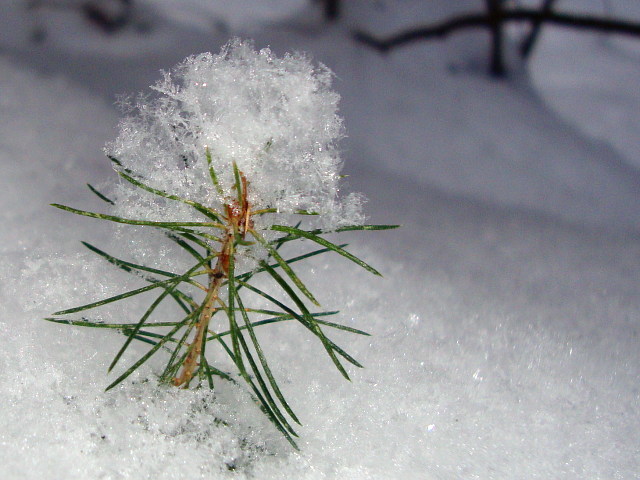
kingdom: Plantae
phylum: Tracheophyta
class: Pinopsida
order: Pinales
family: Pinaceae
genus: Picea
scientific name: Picea abies
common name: Norway spruce
